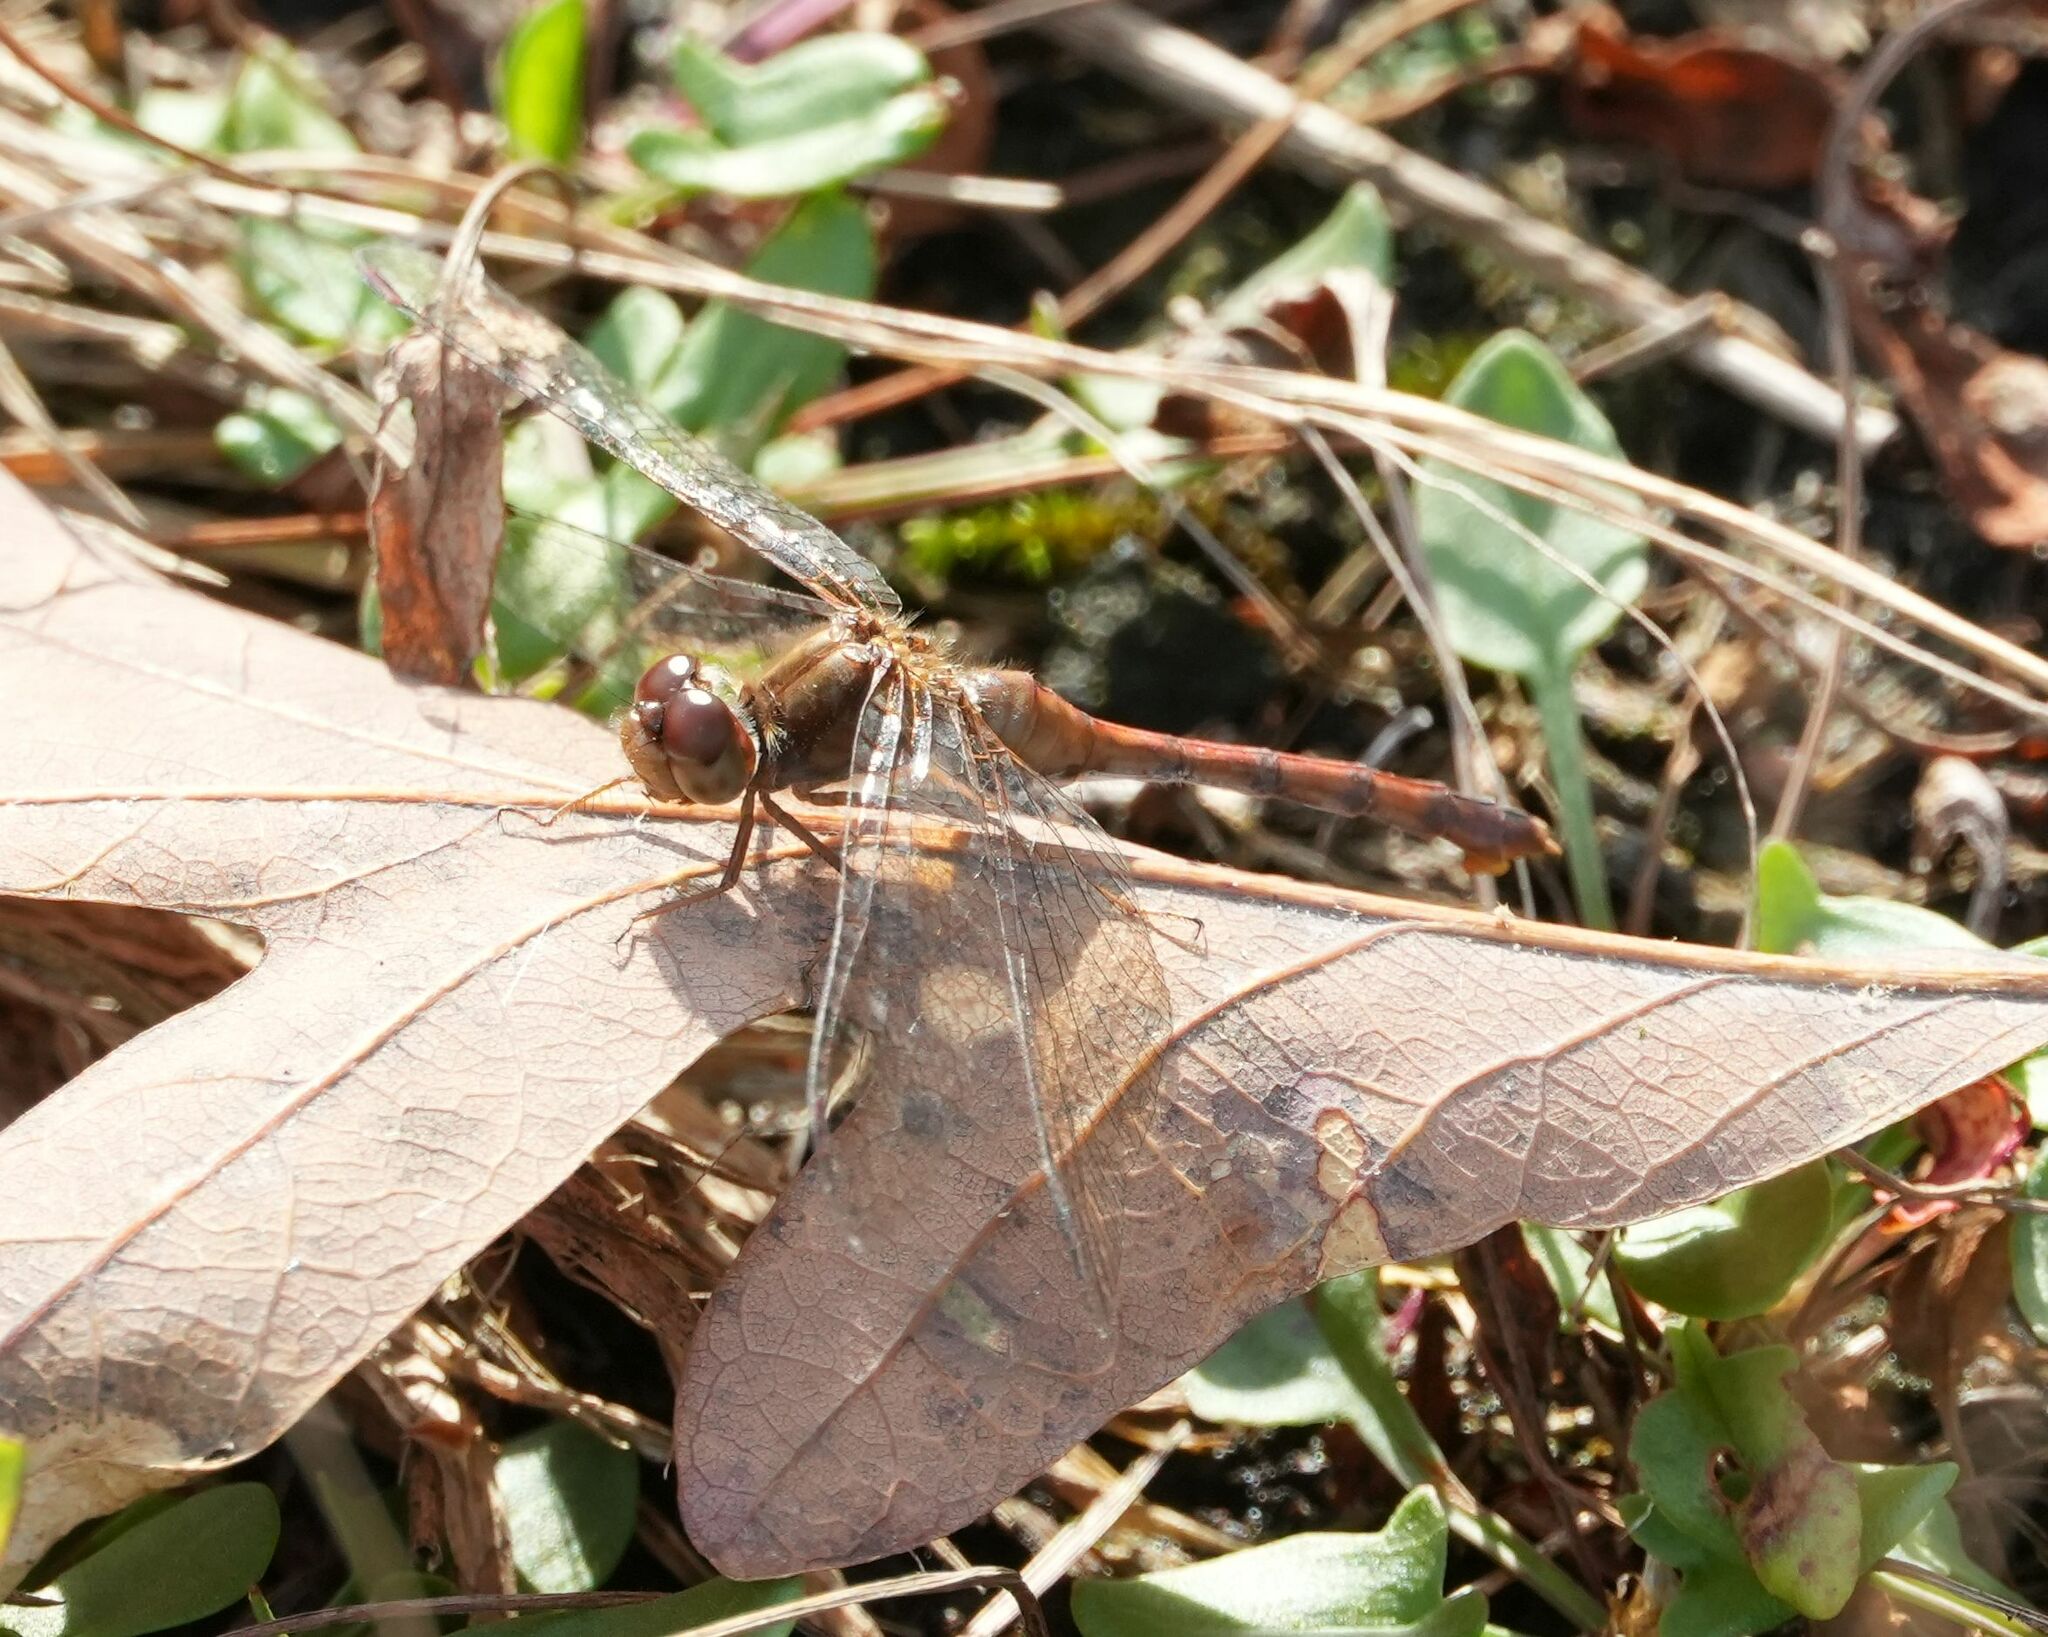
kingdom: Animalia
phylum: Arthropoda
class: Insecta
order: Odonata
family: Libellulidae
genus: Sympetrum
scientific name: Sympetrum vicinum
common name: Autumn meadowhawk
